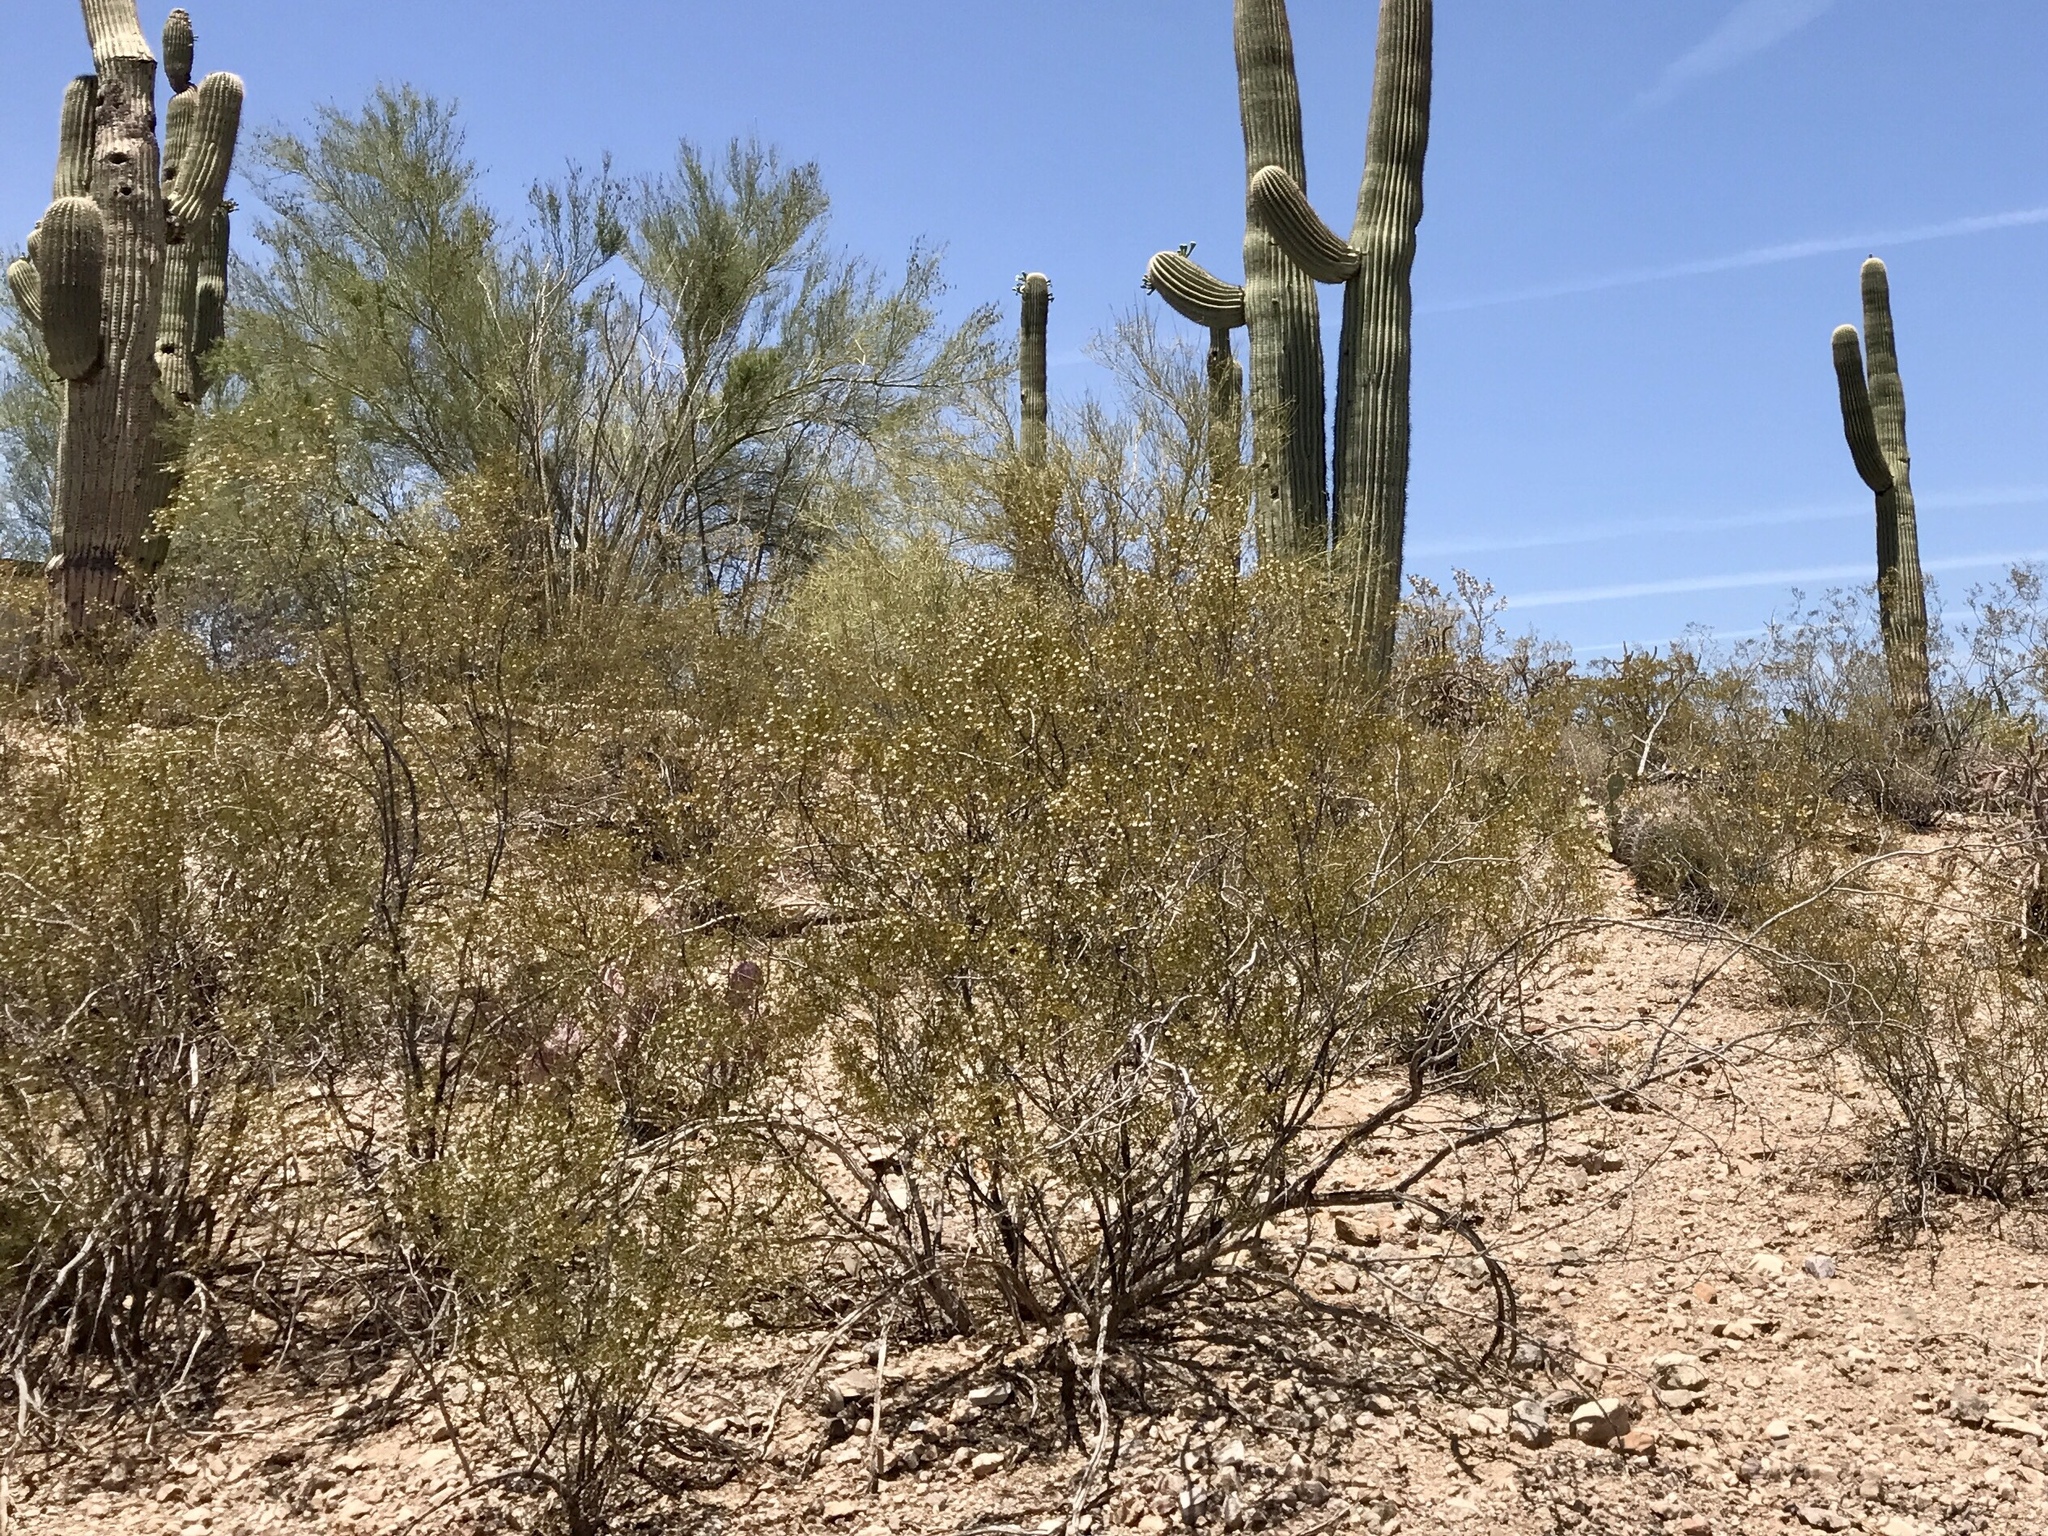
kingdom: Plantae
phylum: Tracheophyta
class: Magnoliopsida
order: Zygophyllales
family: Zygophyllaceae
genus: Larrea
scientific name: Larrea tridentata
